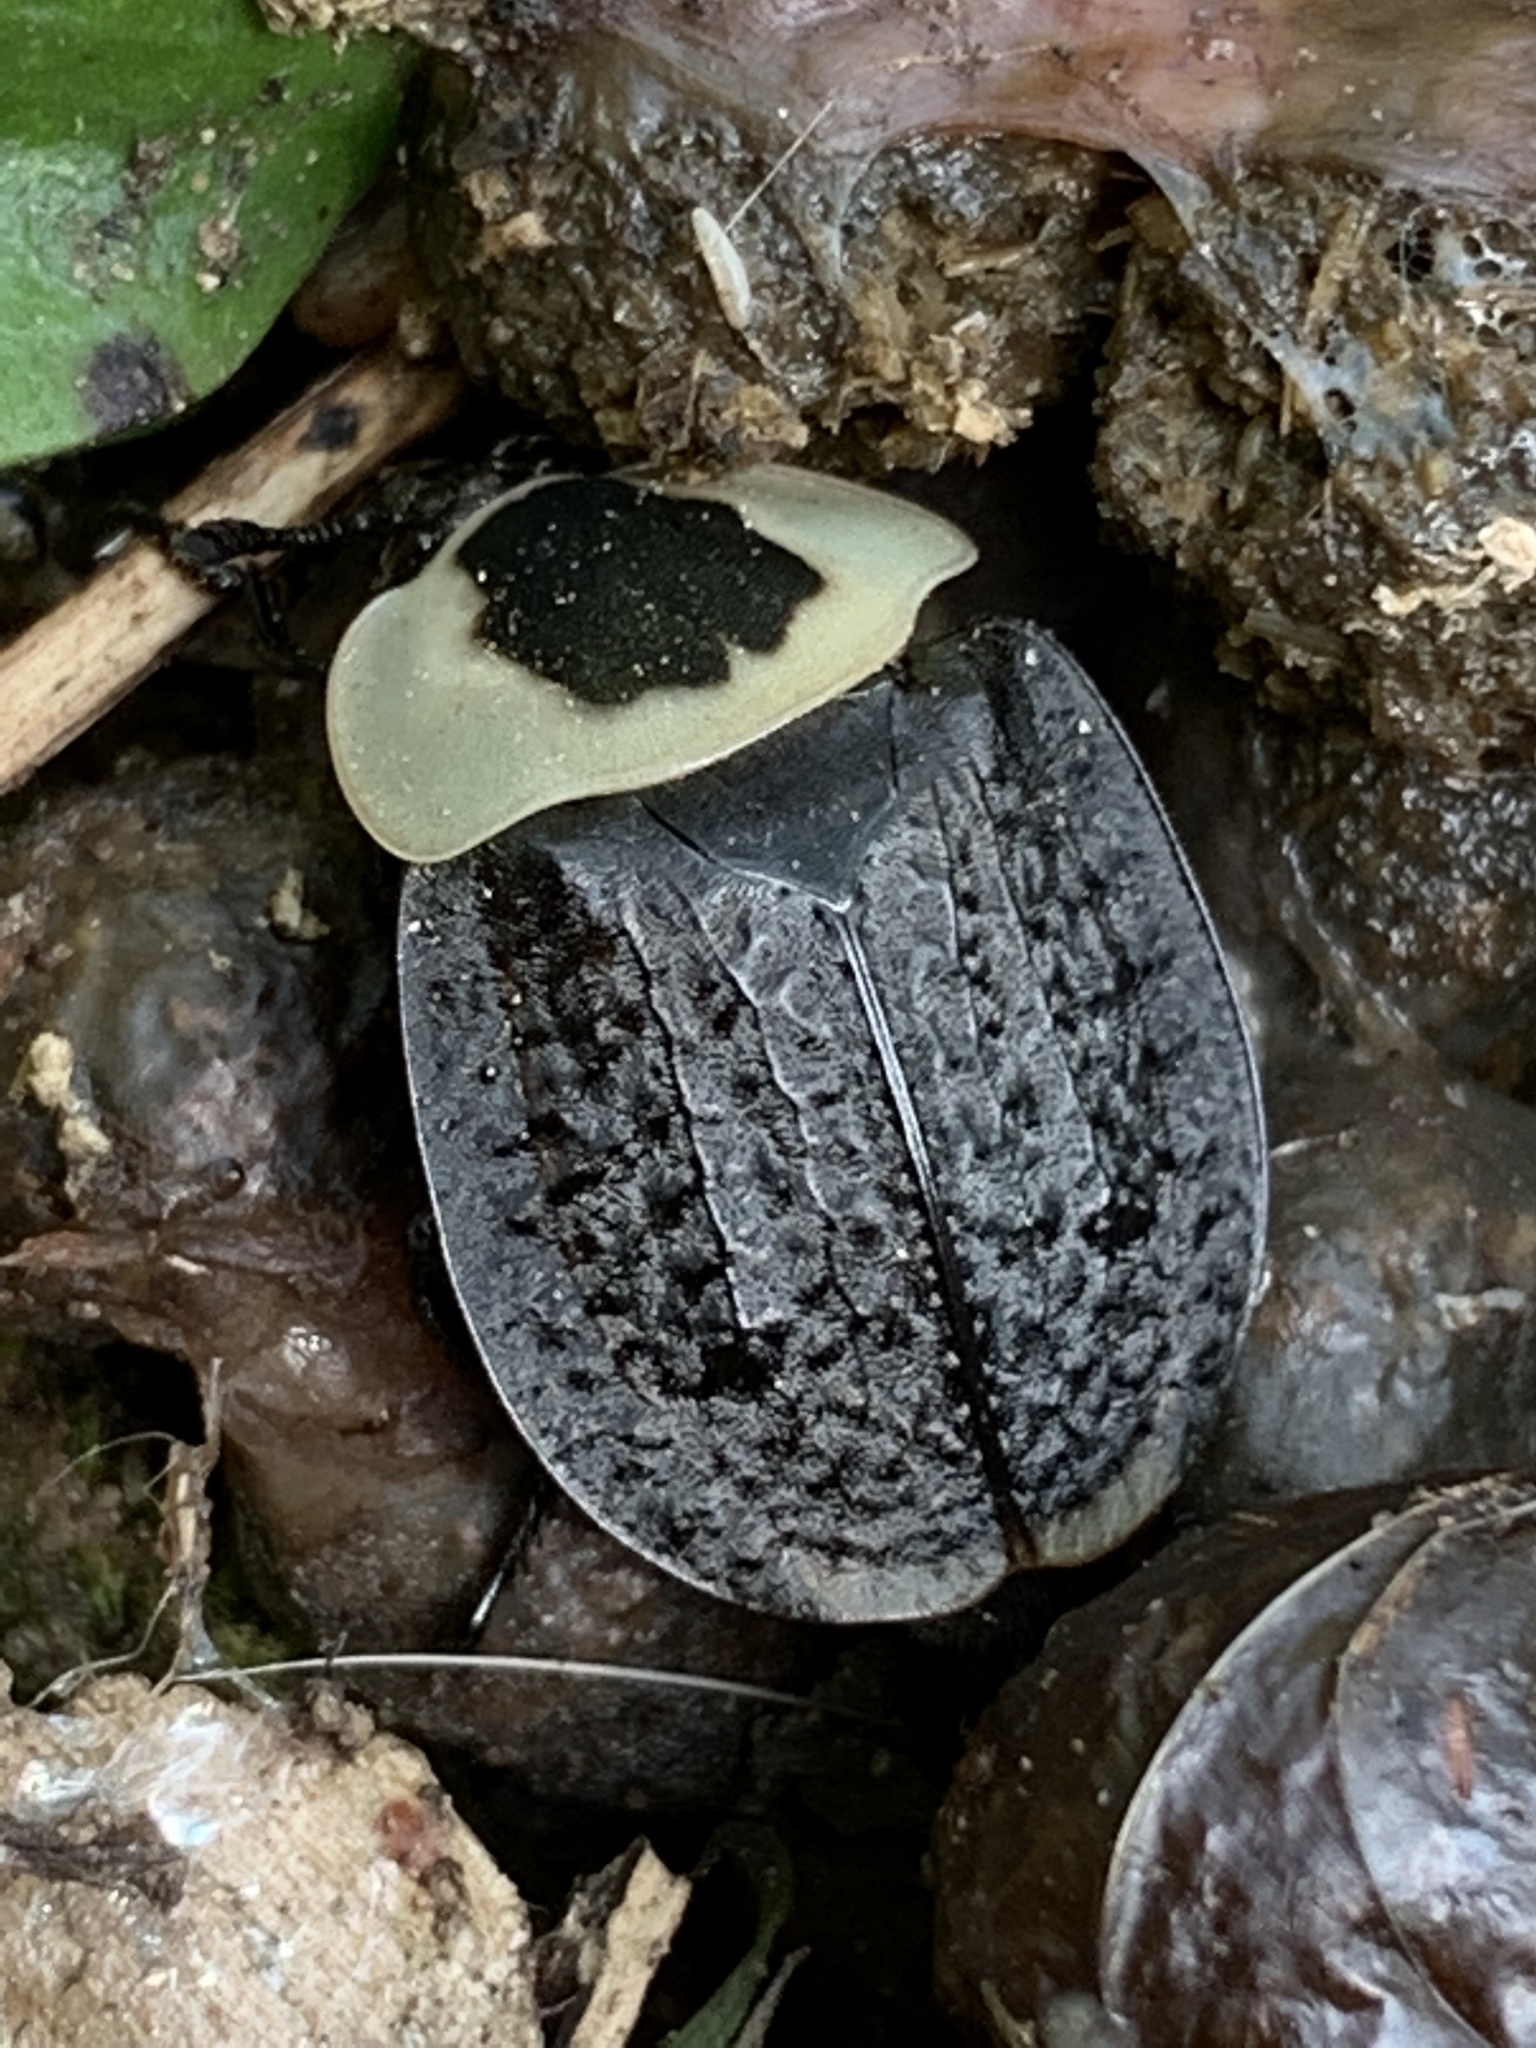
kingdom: Animalia
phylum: Arthropoda
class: Insecta
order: Coleoptera
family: Staphylinidae
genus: Necrophila
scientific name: Necrophila americana
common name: American carrion beetle
